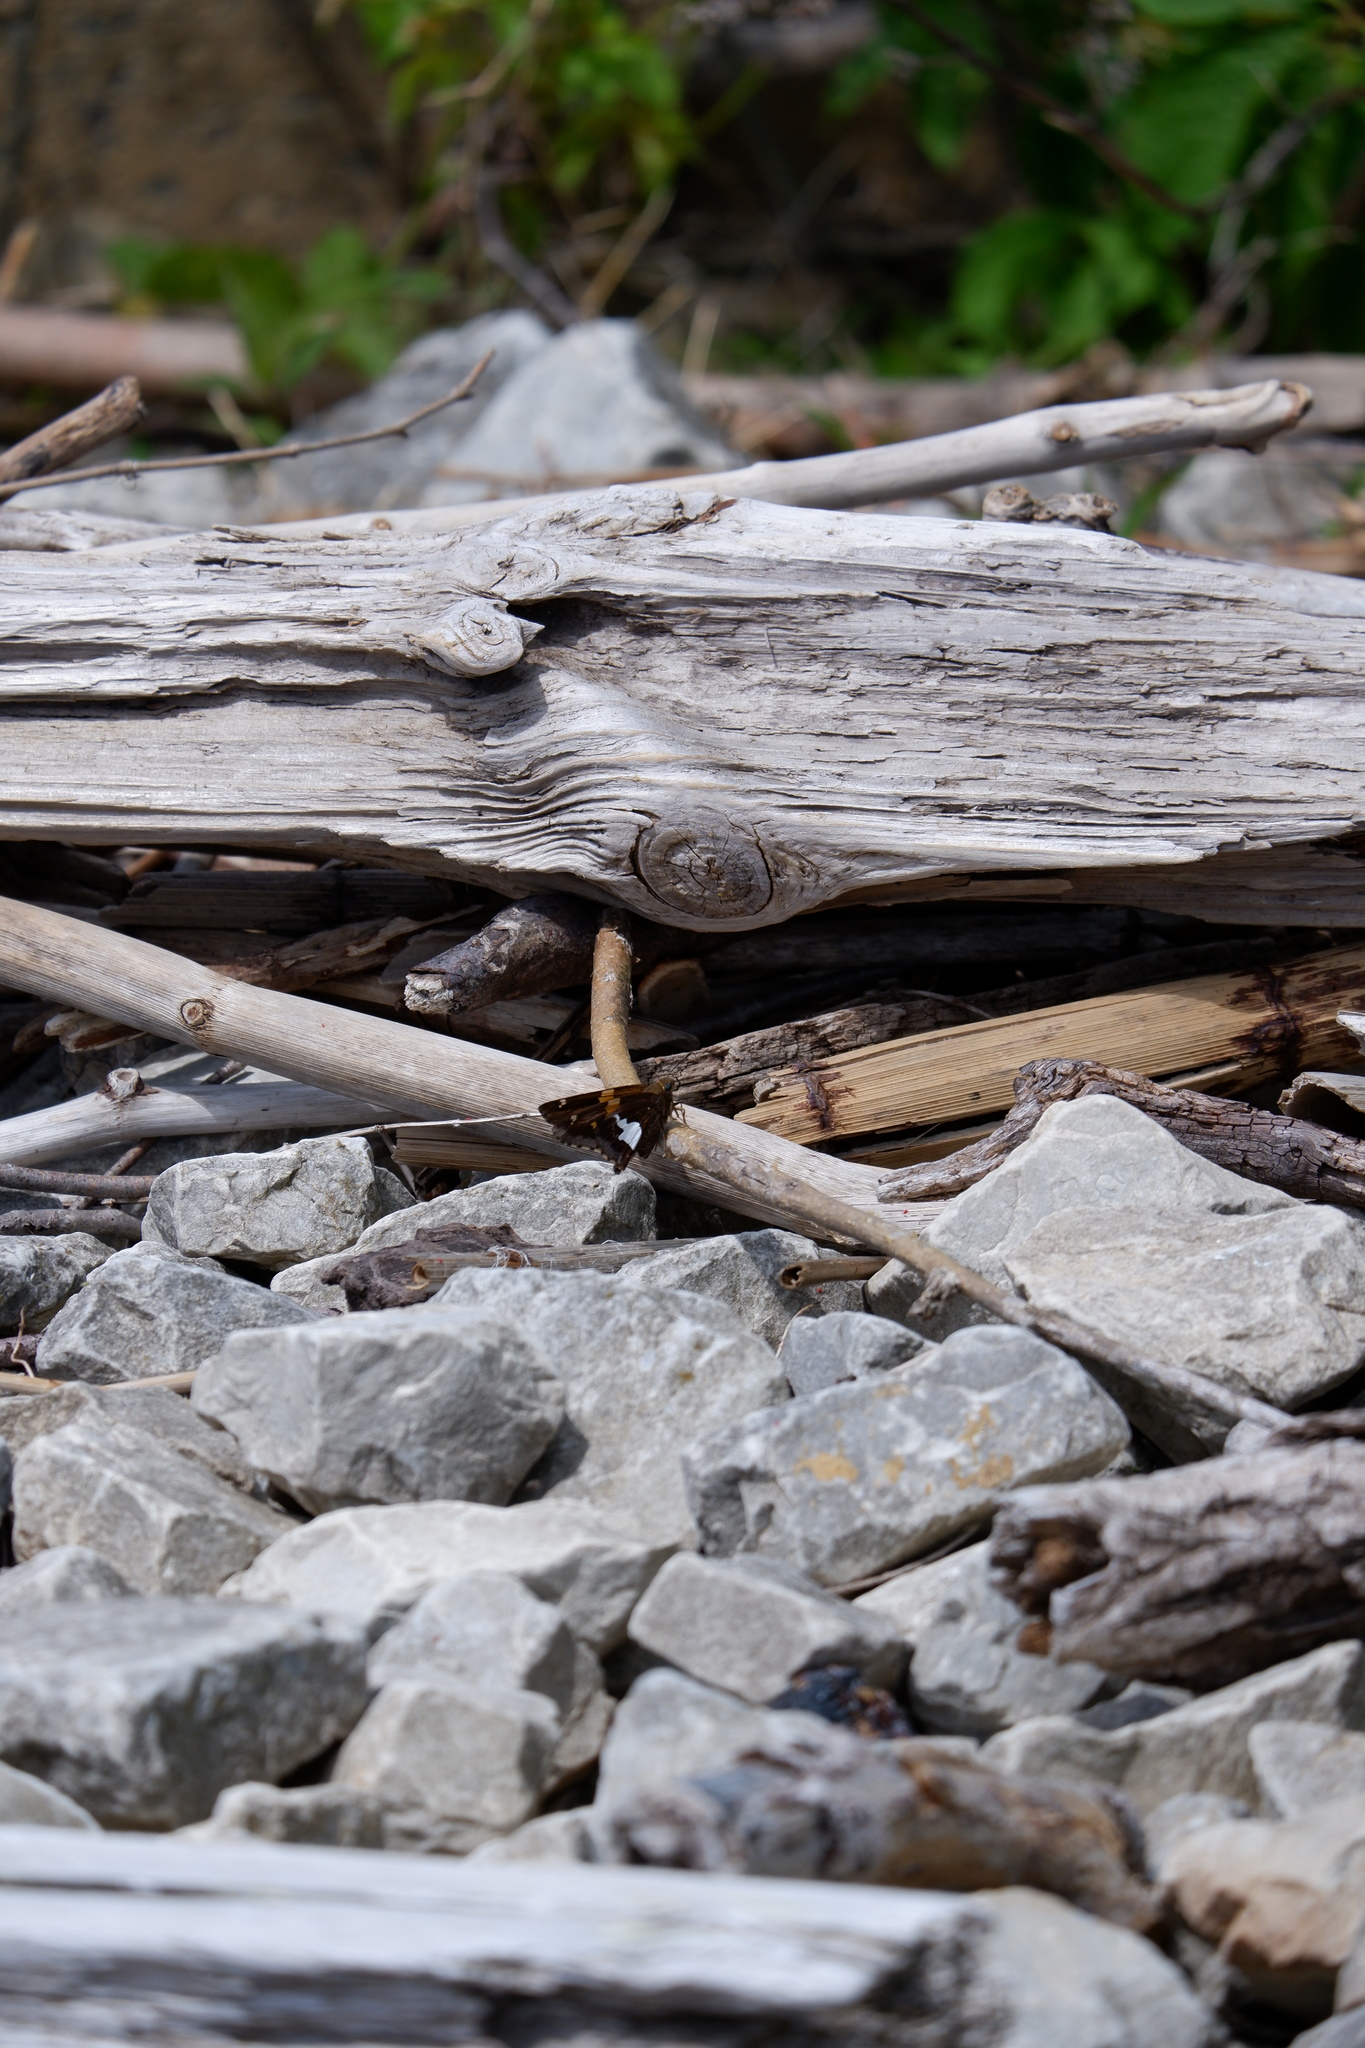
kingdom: Animalia
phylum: Arthropoda
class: Insecta
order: Lepidoptera
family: Hesperiidae
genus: Epargyreus
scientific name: Epargyreus clarus
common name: Silver-spotted skipper
